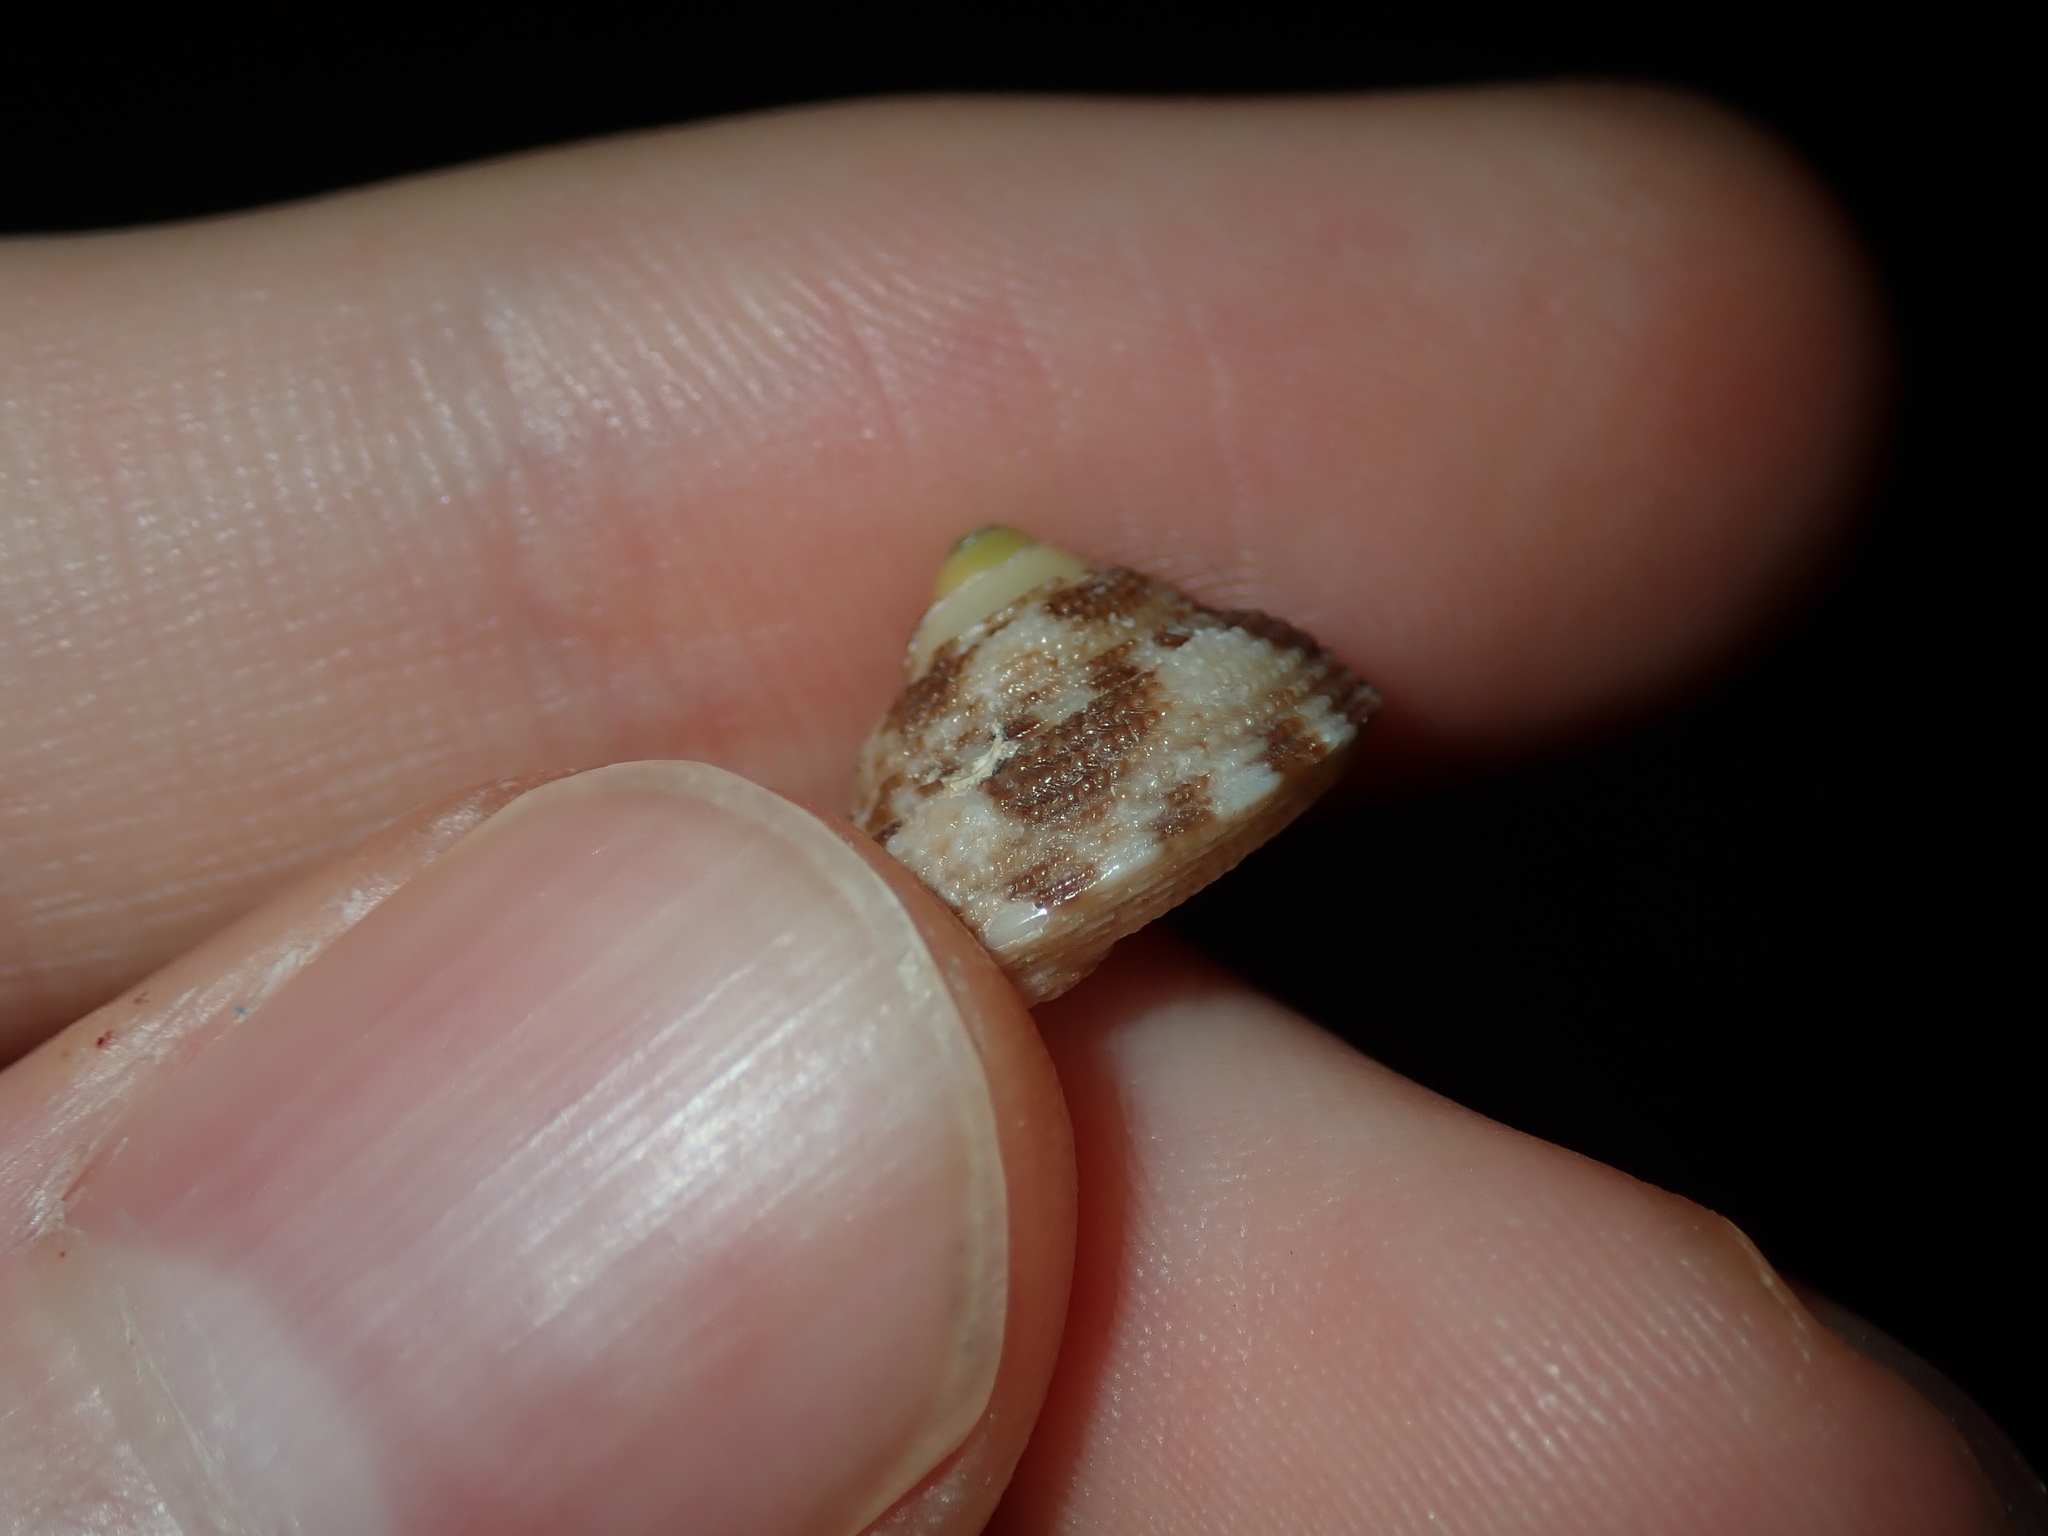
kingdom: Animalia
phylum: Mollusca
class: Gastropoda
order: Trochida
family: Trochidae
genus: Clanculus
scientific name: Clanculus brunneus
